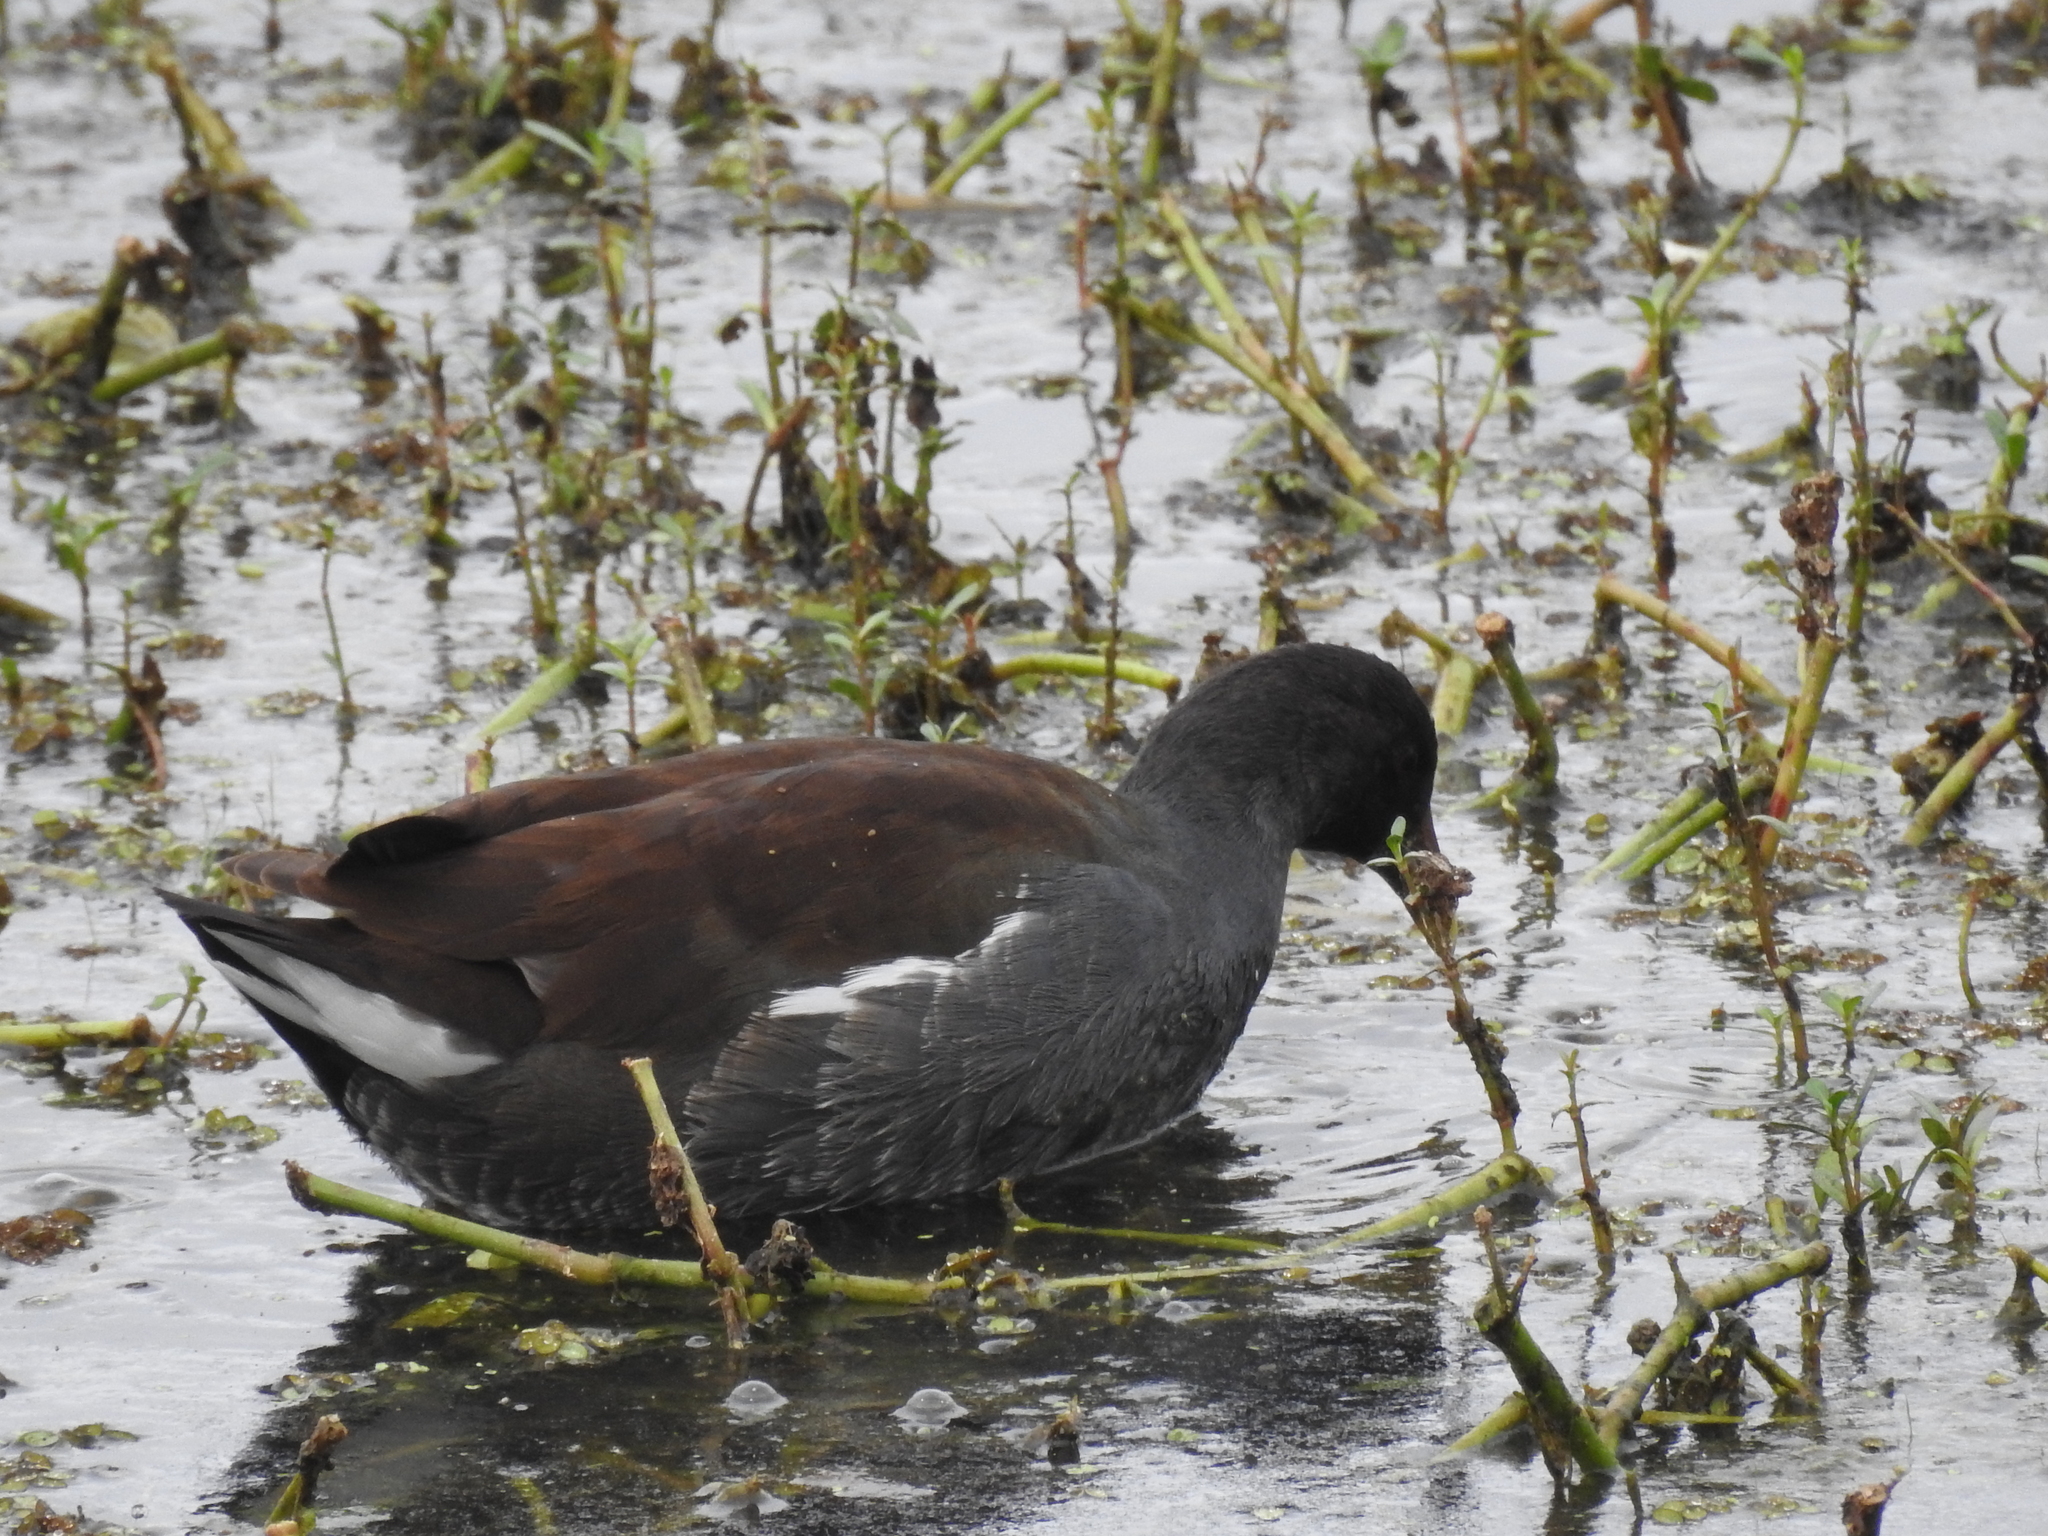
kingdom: Animalia
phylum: Chordata
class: Aves
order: Gruiformes
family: Rallidae
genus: Gallinula
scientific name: Gallinula chloropus
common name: Common moorhen
